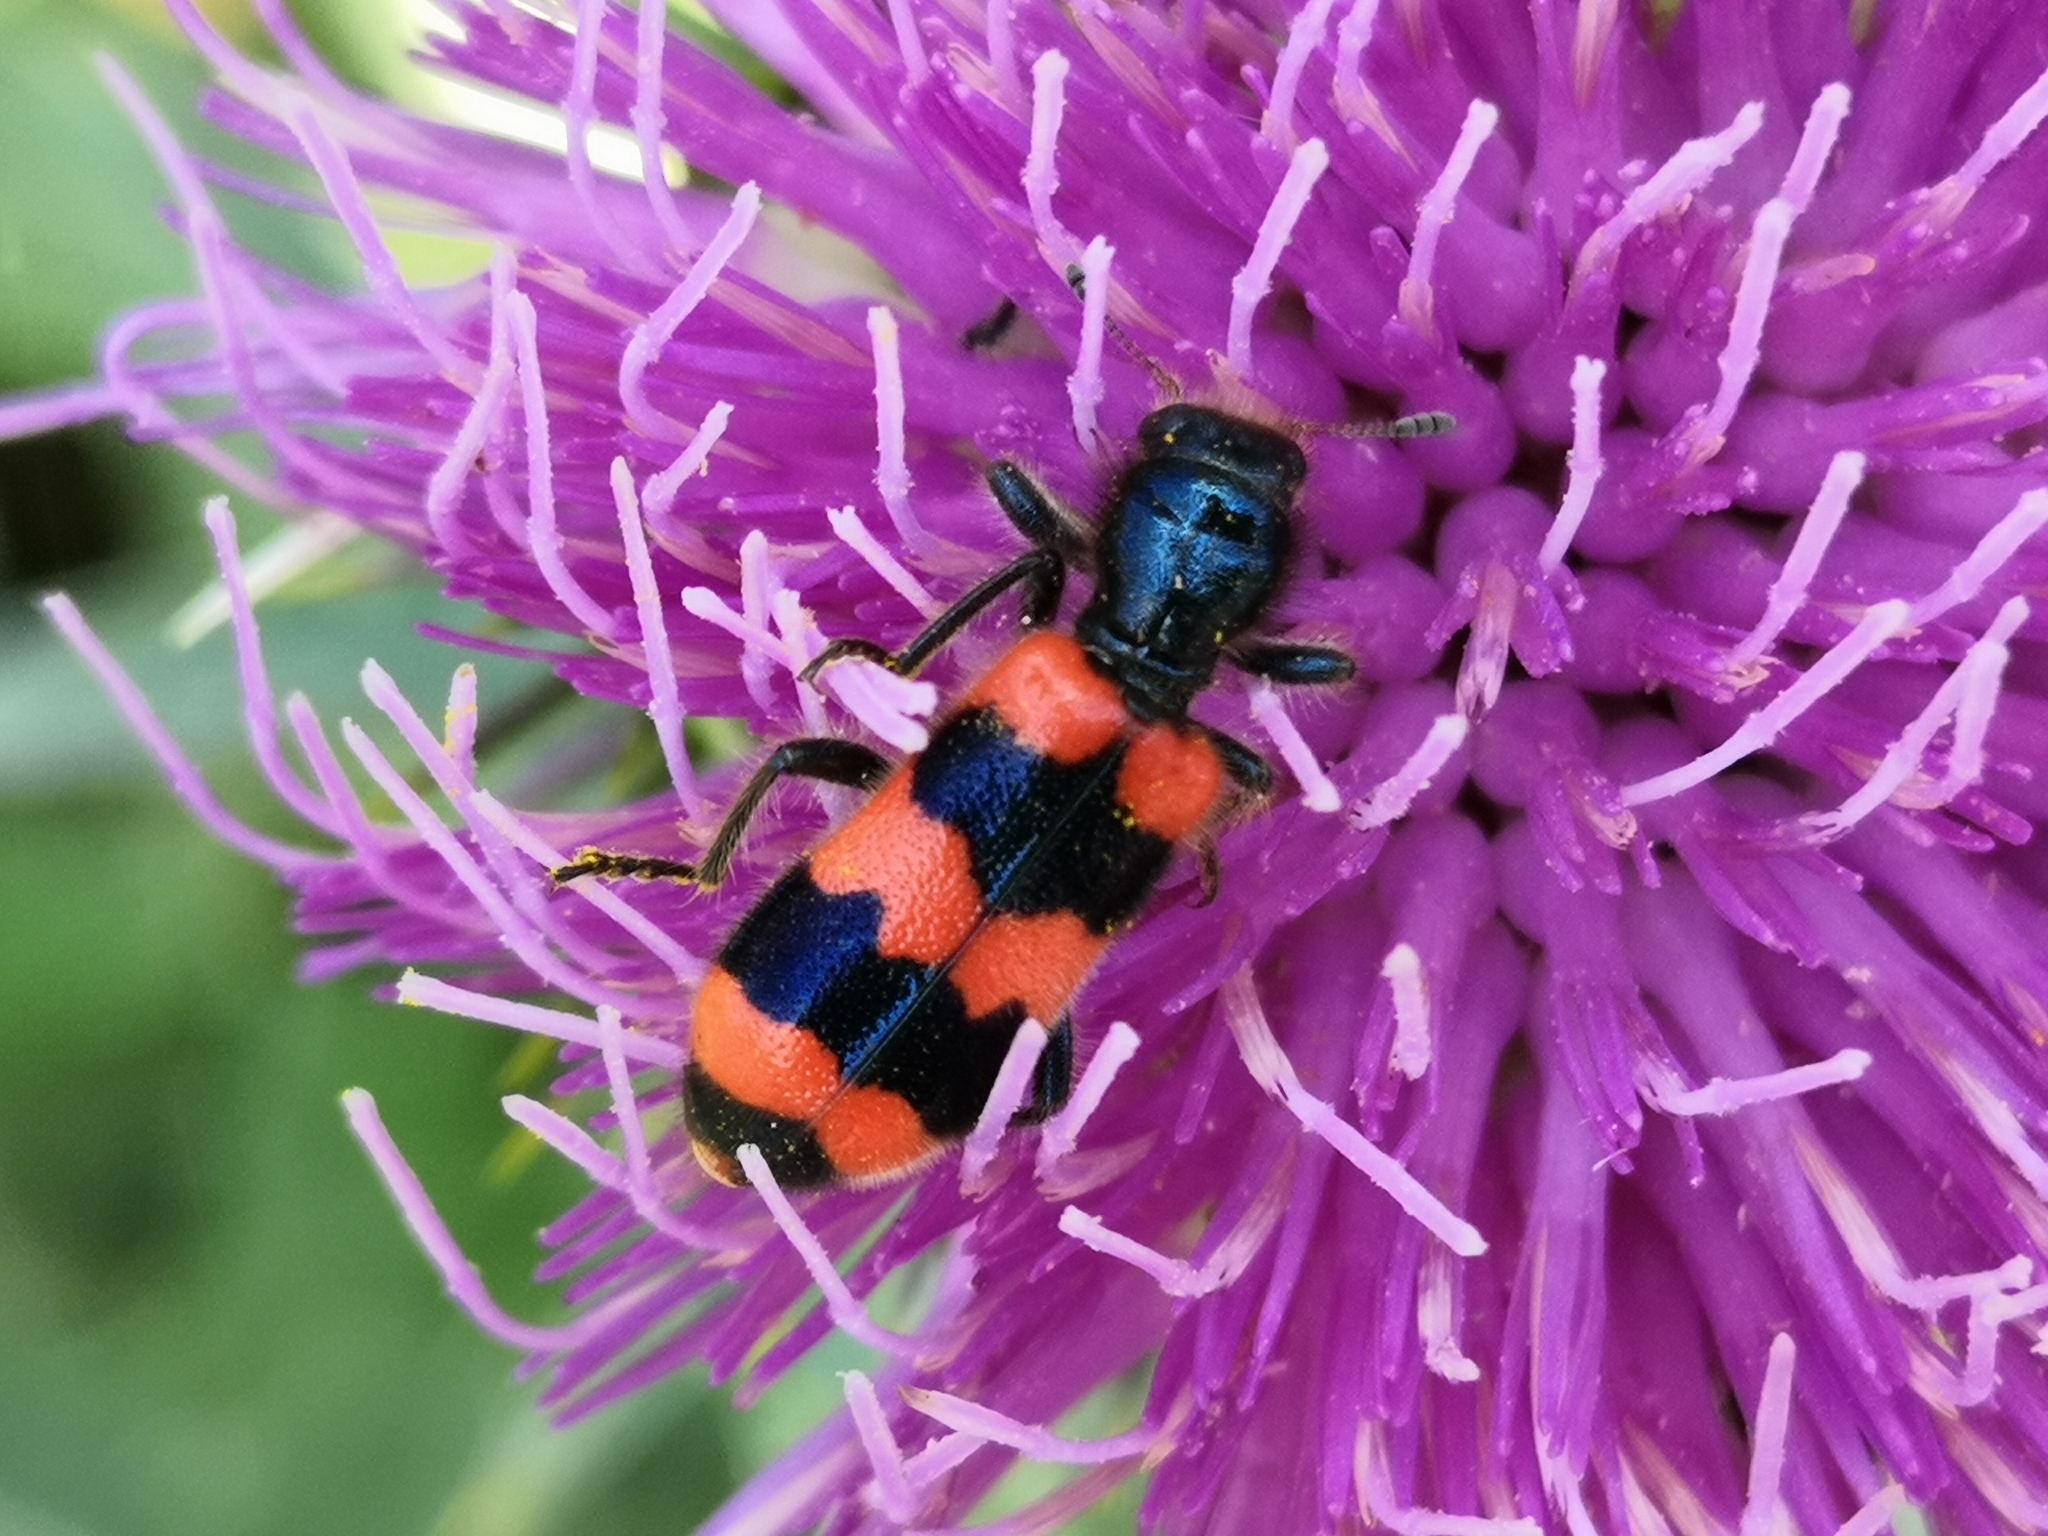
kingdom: Animalia
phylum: Arthropoda
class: Insecta
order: Coleoptera
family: Cleridae
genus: Trichodes
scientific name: Trichodes apiarius
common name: Bee-eating beetle
